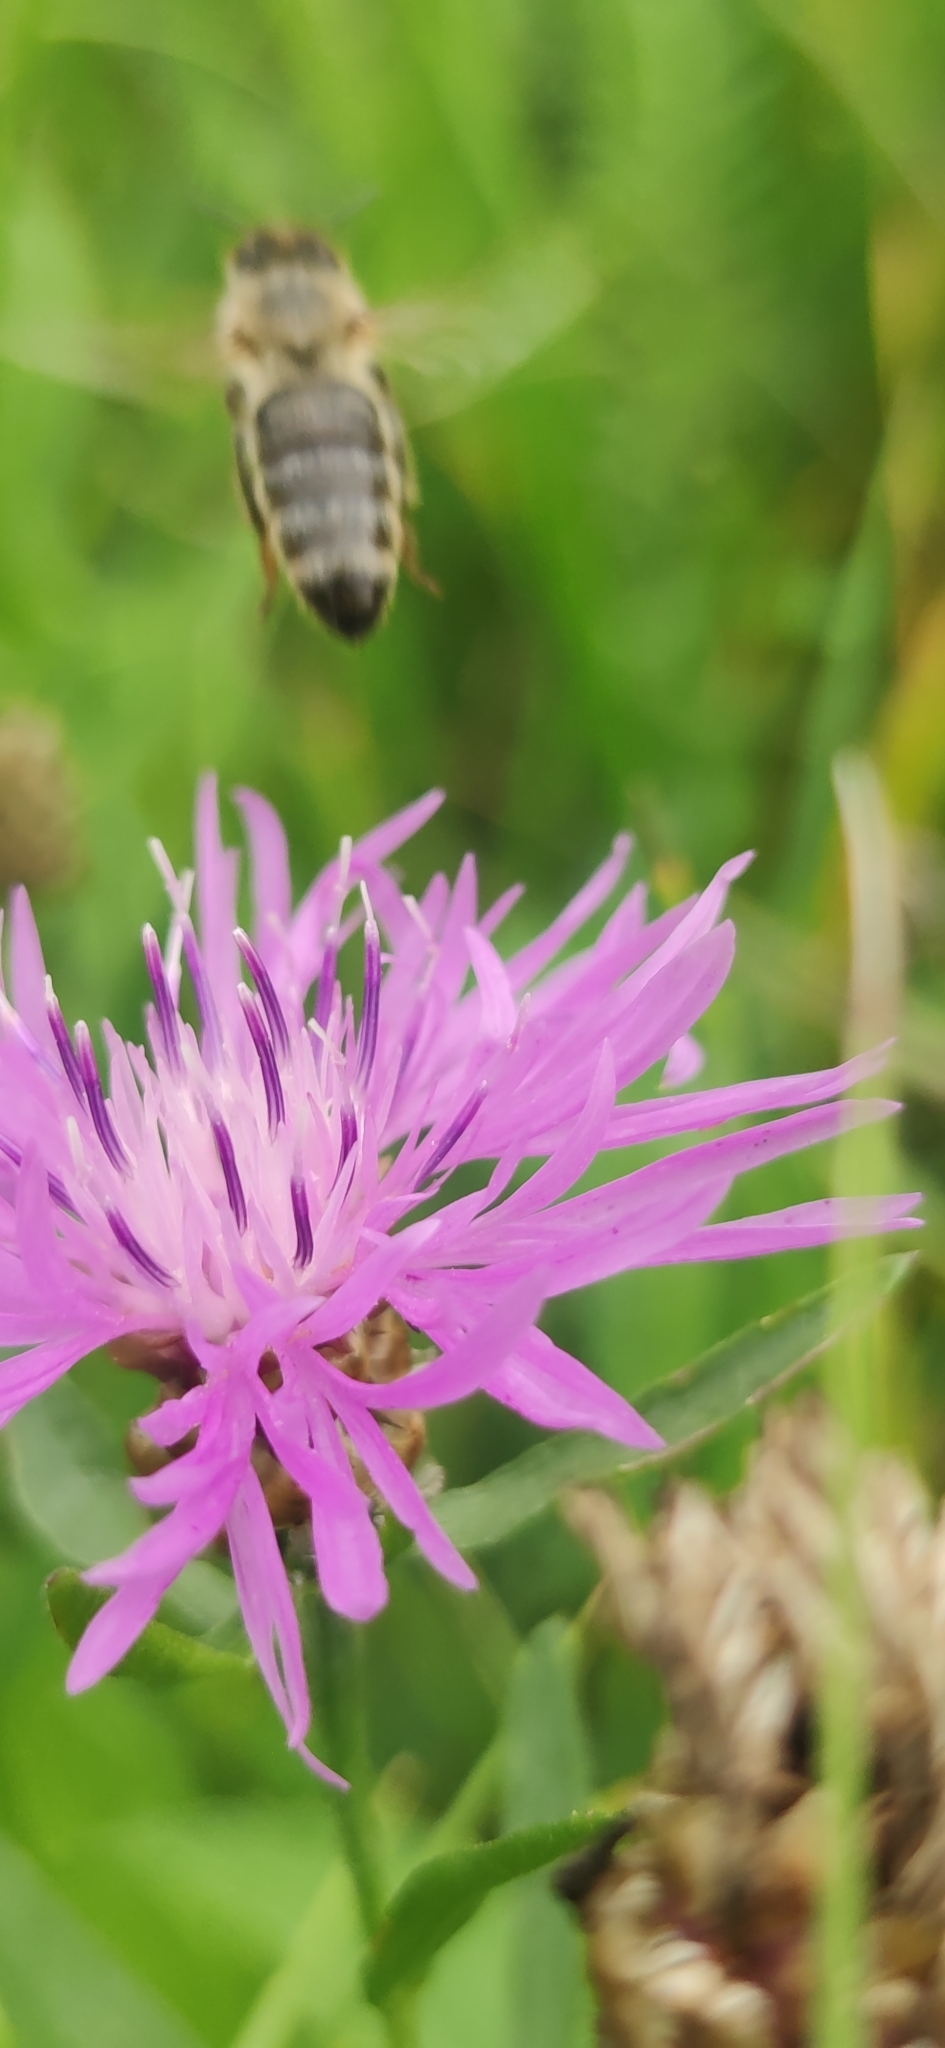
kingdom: Plantae
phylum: Tracheophyta
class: Magnoliopsida
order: Asterales
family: Asteraceae
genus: Centaurea
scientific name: Centaurea jacea
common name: Brown knapweed
